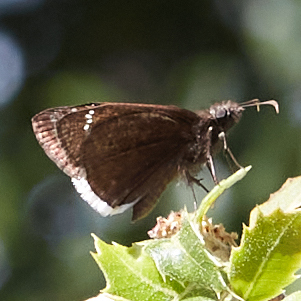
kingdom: Animalia
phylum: Arthropoda
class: Insecta
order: Lepidoptera
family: Hesperiidae
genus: Erynnis
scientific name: Erynnis tristis
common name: Mournful duskywing
